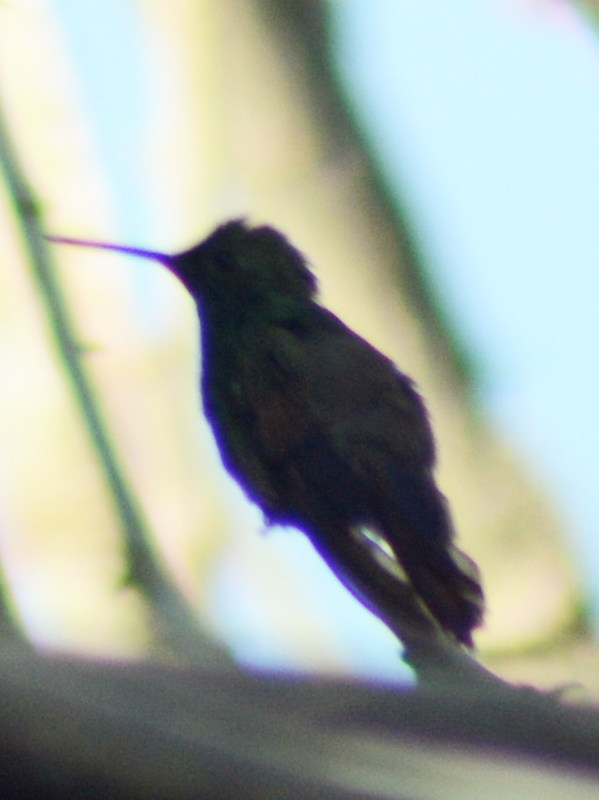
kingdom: Animalia
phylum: Chordata
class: Aves
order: Apodiformes
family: Trochilidae
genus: Saucerottia
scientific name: Saucerottia beryllina
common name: Berylline hummingbird
